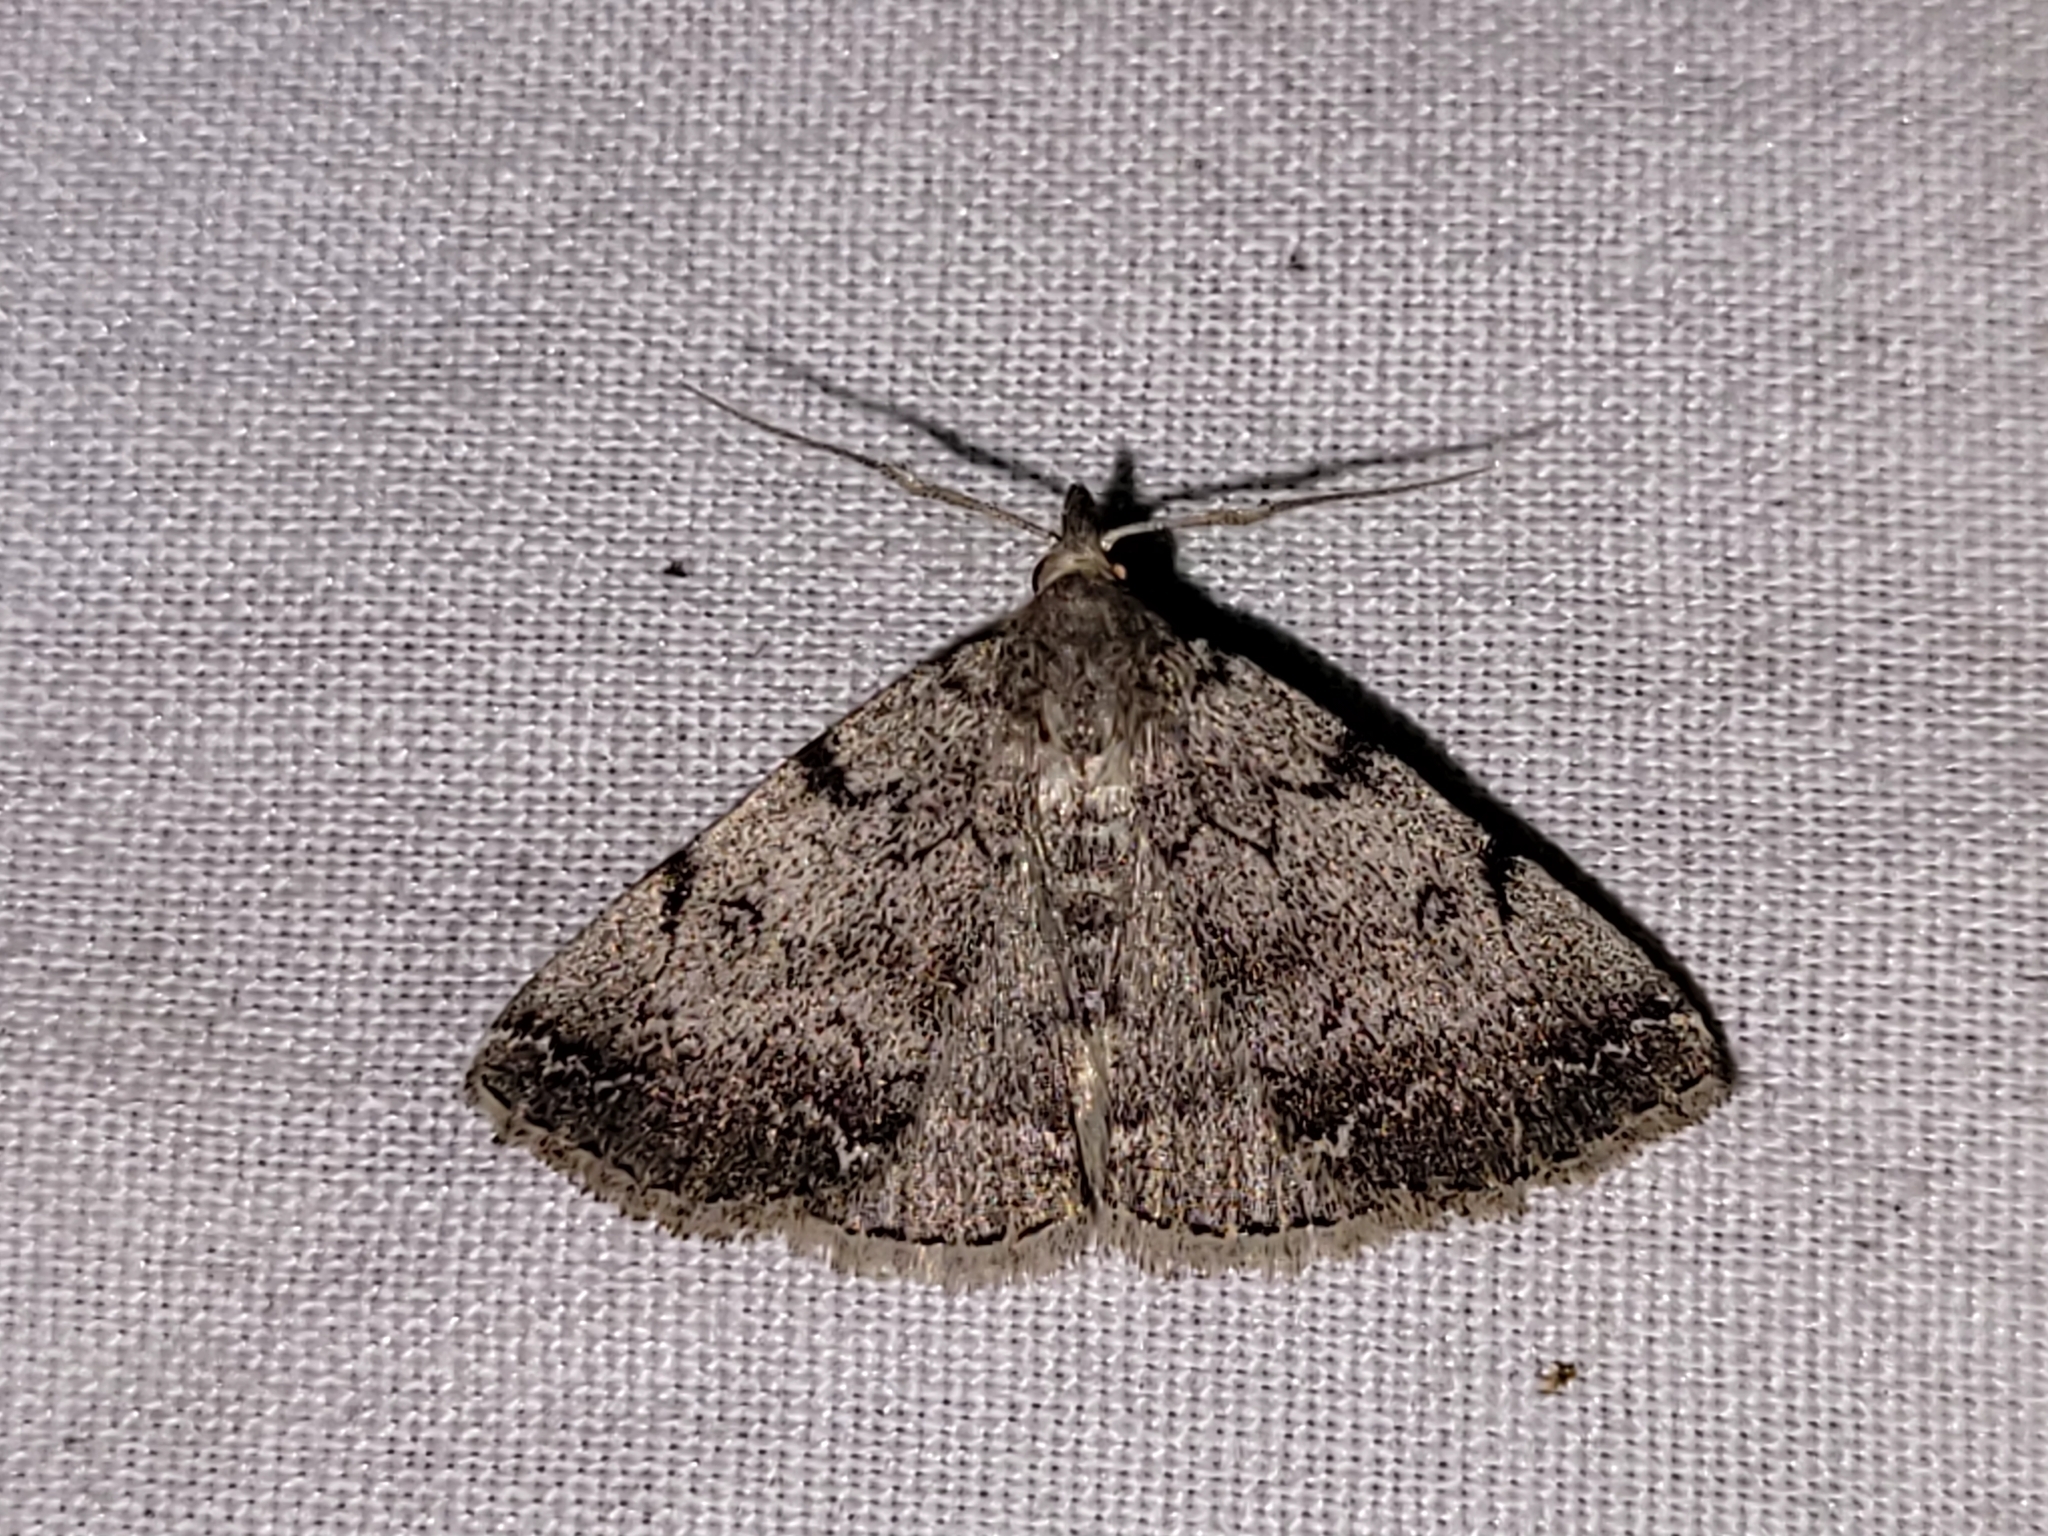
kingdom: Animalia
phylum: Arthropoda
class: Insecta
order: Lepidoptera
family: Erebidae
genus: Zanclognatha
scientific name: Zanclognatha theralis
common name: Flagged fan-foot
